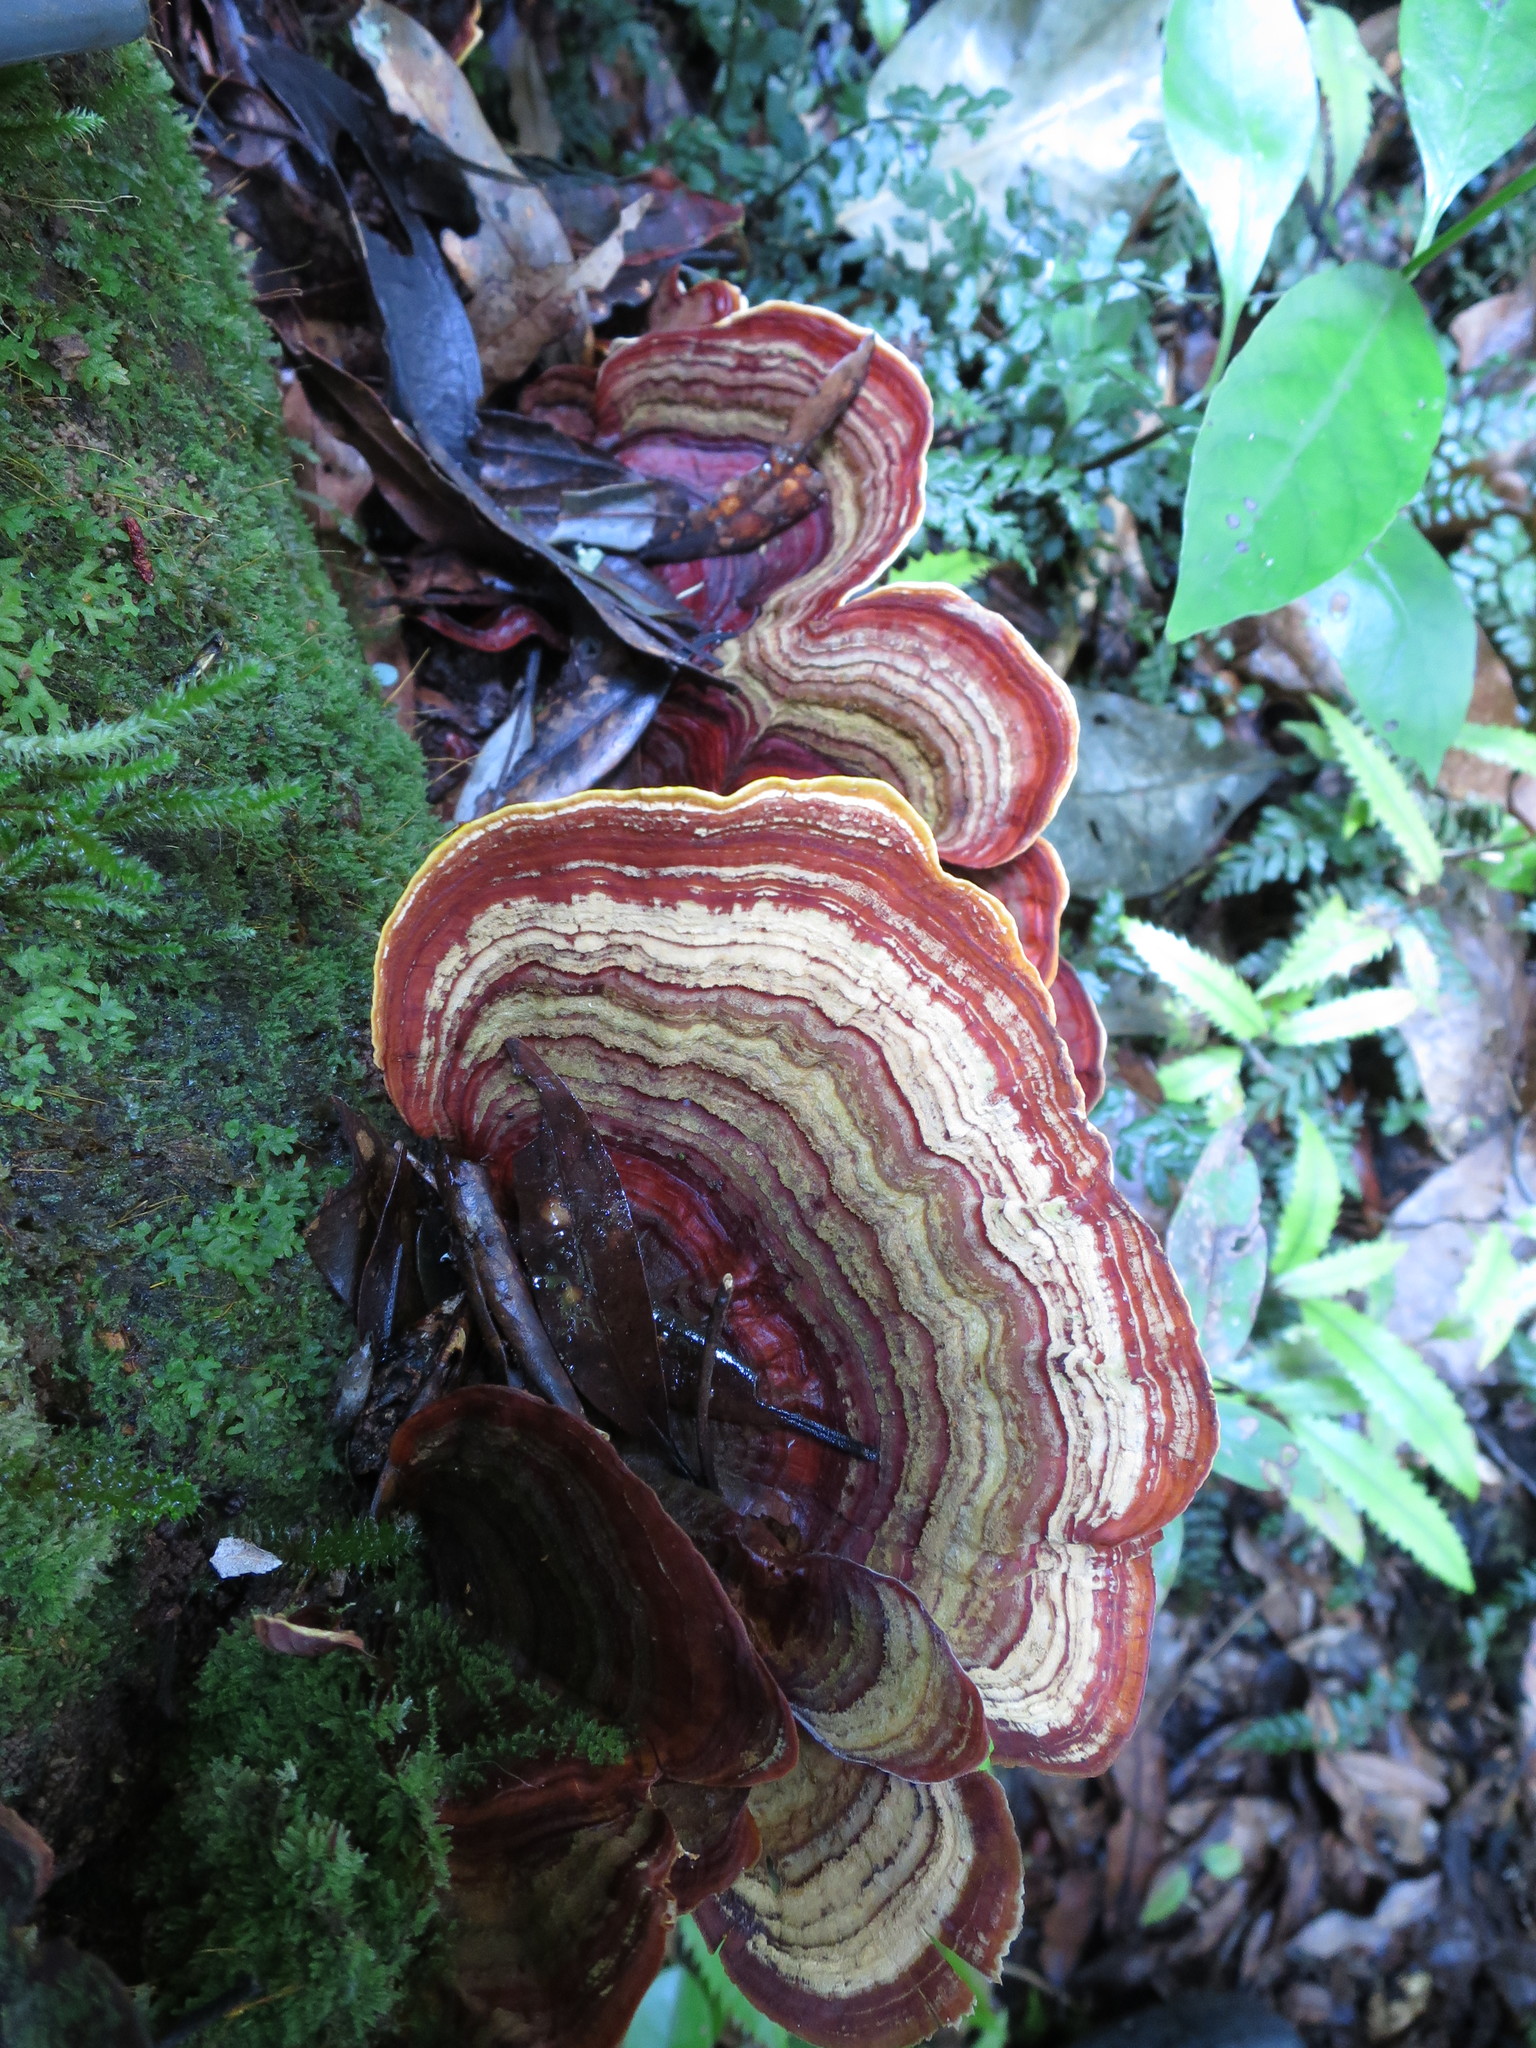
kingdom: Fungi
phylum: Basidiomycota
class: Agaricomycetes
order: Russulales
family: Stereaceae
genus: Stereum
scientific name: Stereum versicolor
